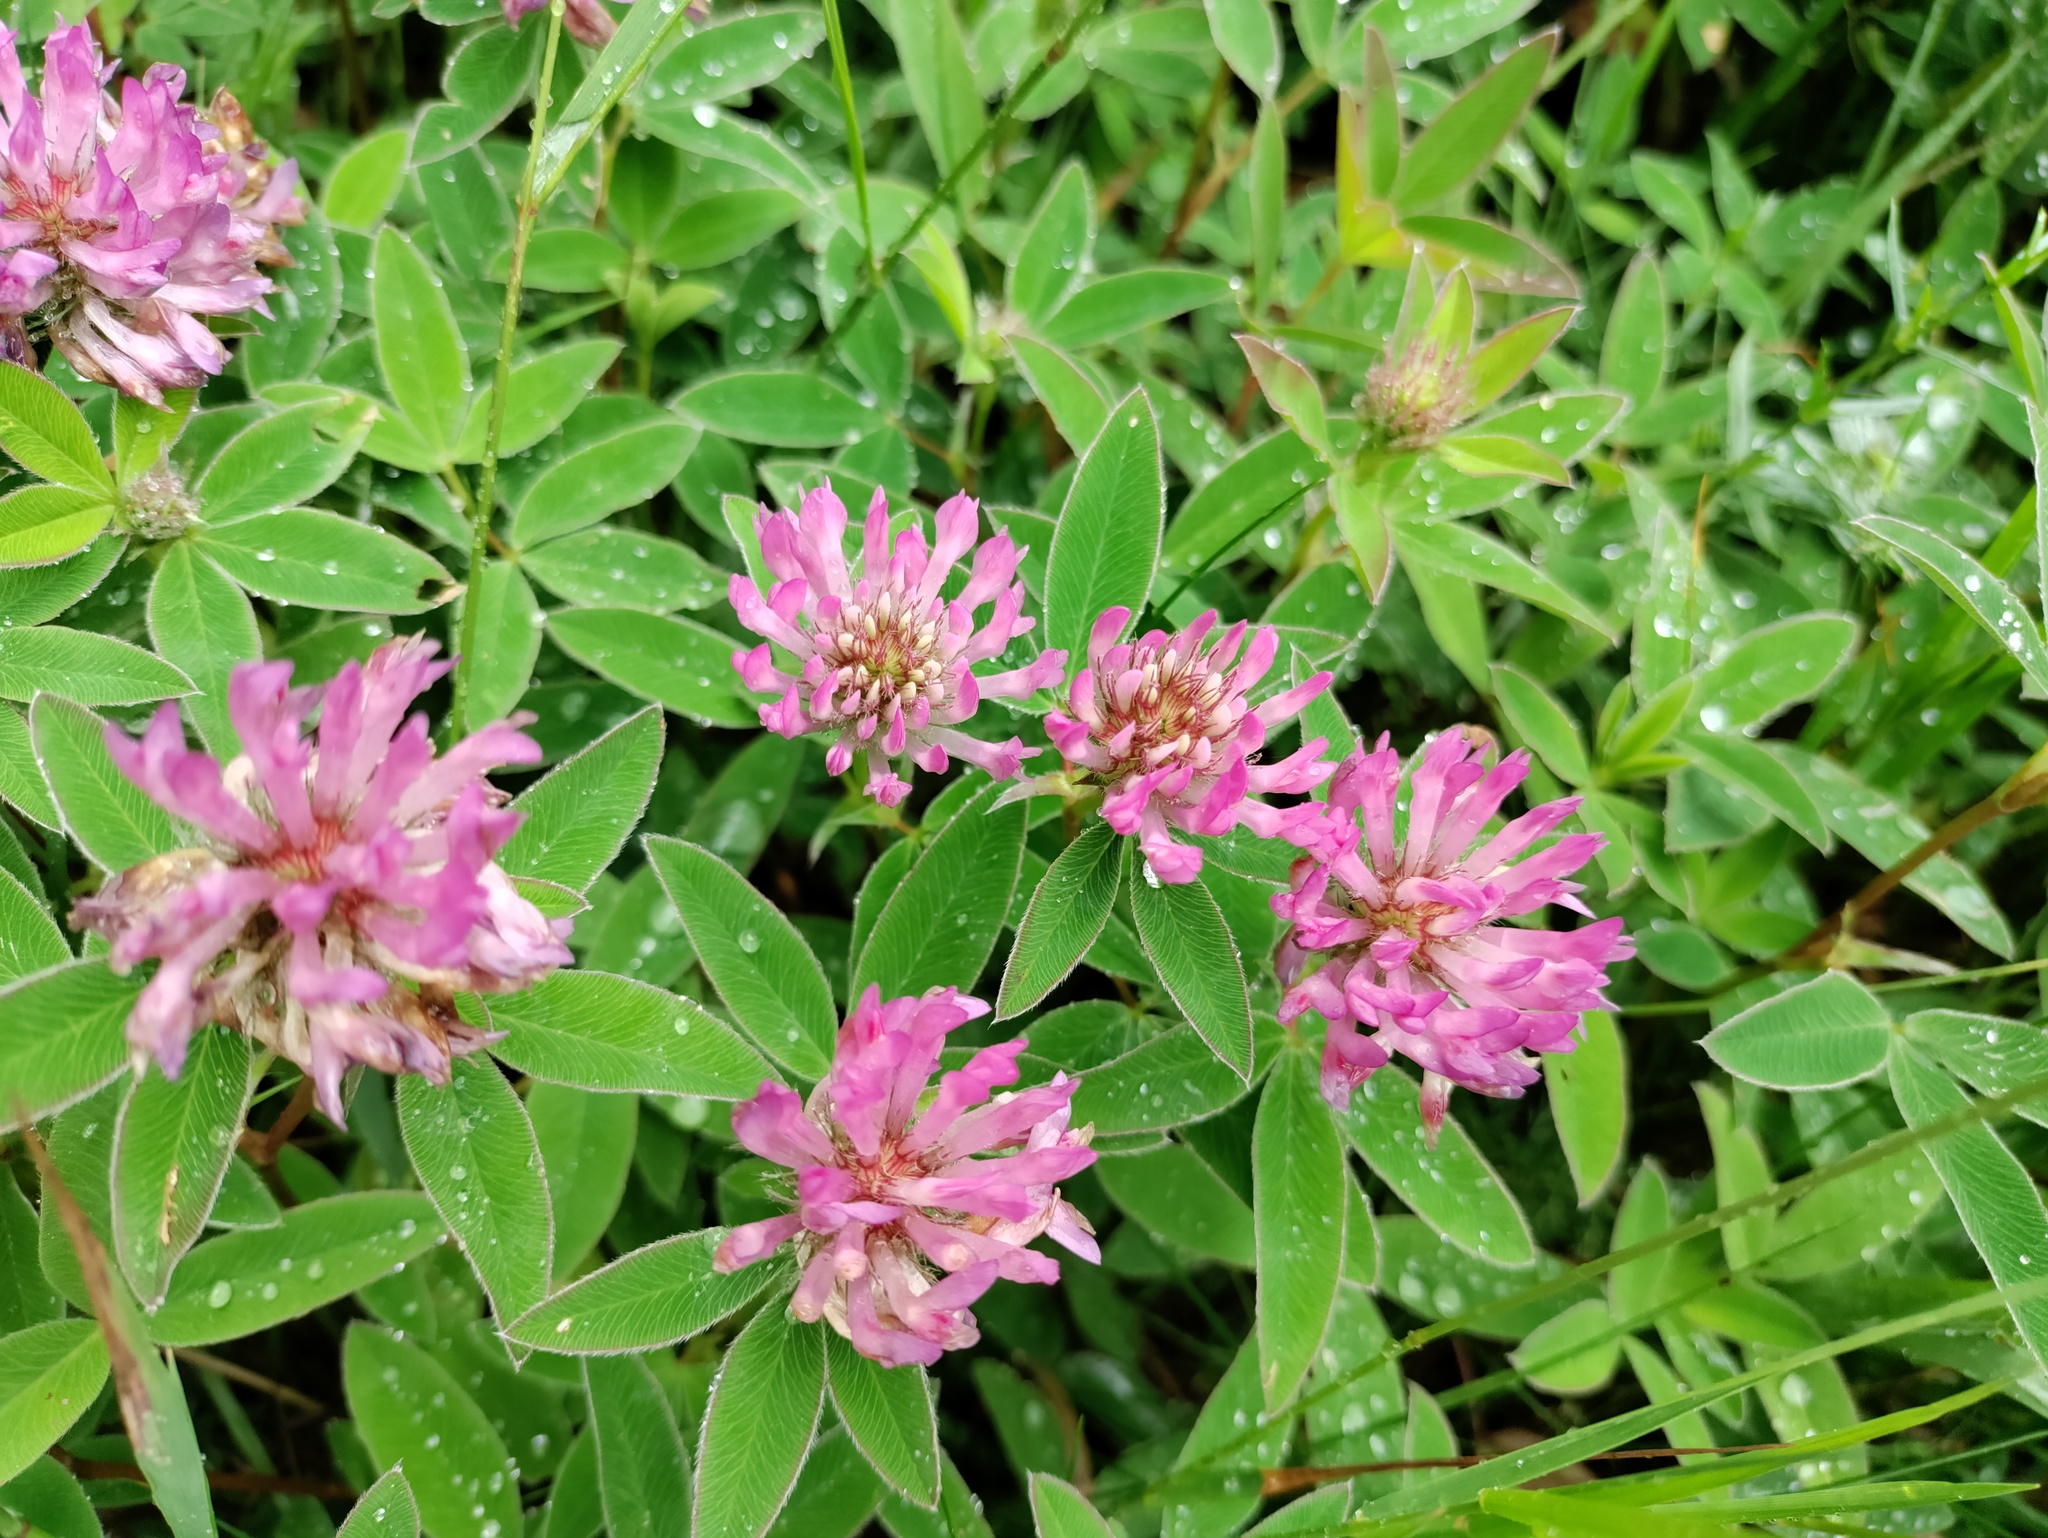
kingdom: Plantae
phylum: Tracheophyta
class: Magnoliopsida
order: Fabales
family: Fabaceae
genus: Trifolium
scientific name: Trifolium medium
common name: Zigzag clover
